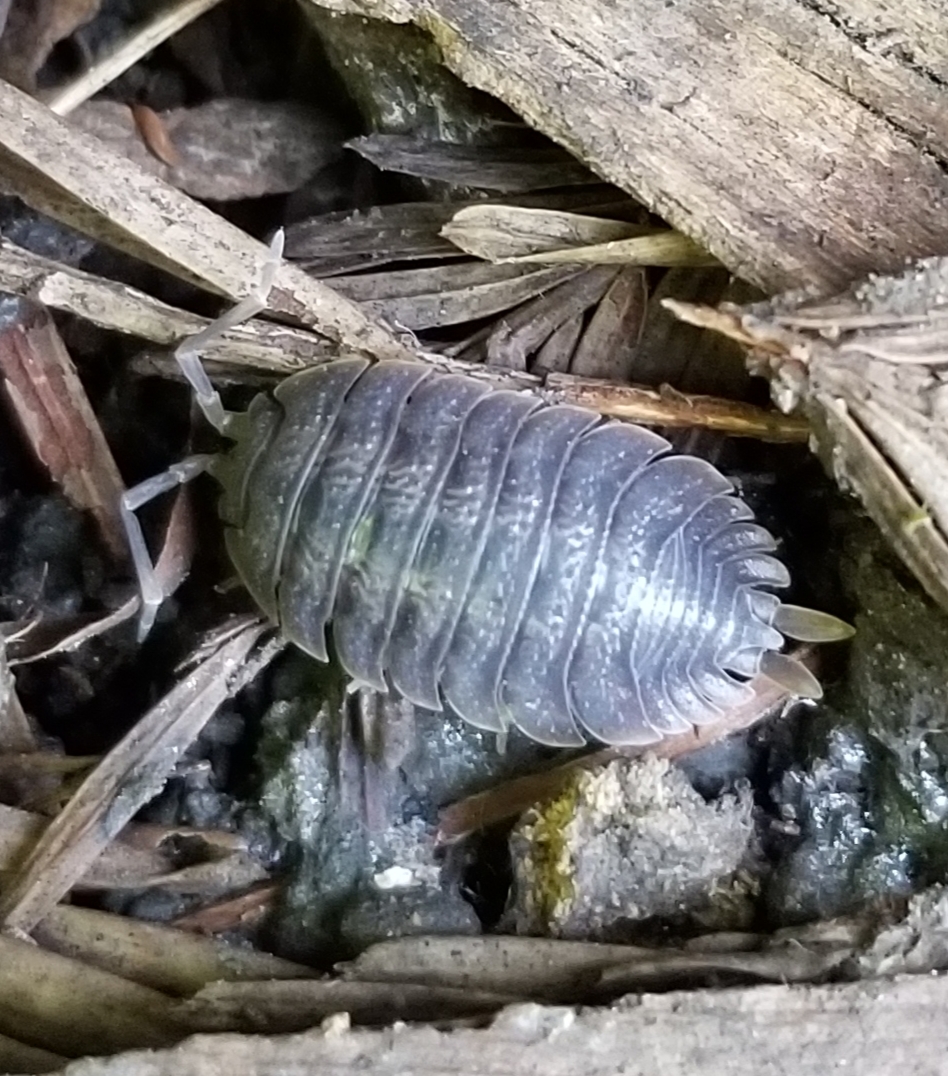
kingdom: Animalia
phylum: Arthropoda
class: Malacostraca
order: Isopoda
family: Porcellionidae
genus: Porcellio
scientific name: Porcellio dilatatus
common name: Isopod
